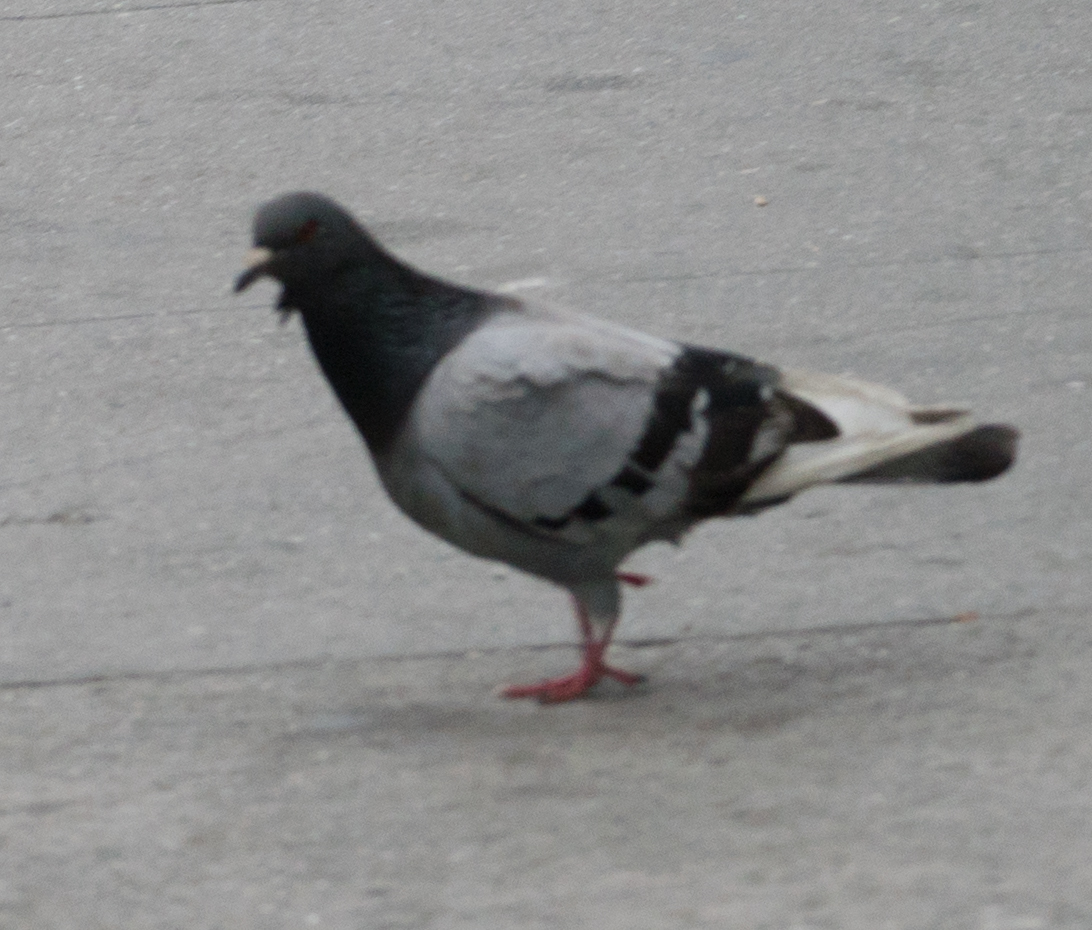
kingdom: Animalia
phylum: Chordata
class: Aves
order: Columbiformes
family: Columbidae
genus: Columba
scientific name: Columba livia
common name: Rock pigeon
